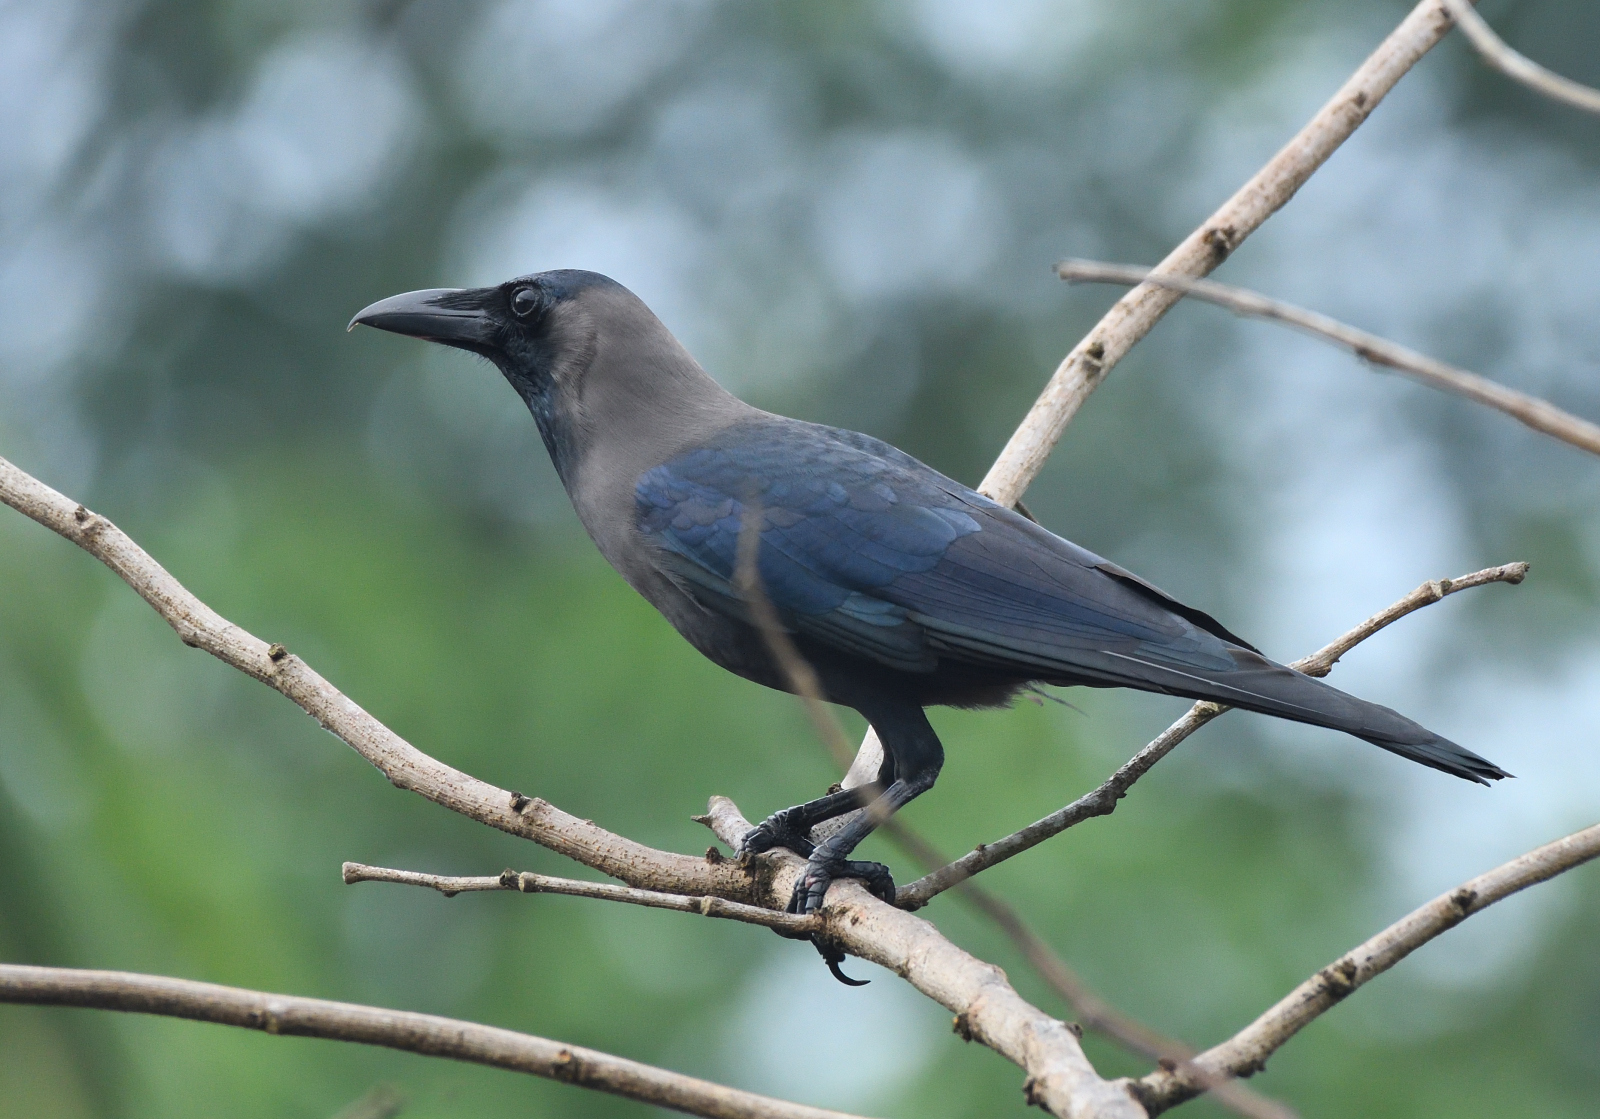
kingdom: Animalia
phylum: Chordata
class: Aves
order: Passeriformes
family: Corvidae
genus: Corvus
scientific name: Corvus splendens
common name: House crow
